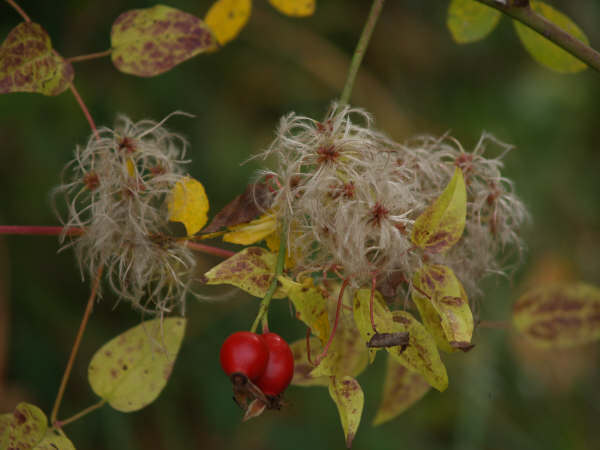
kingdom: Plantae
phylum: Tracheophyta
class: Magnoliopsida
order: Ranunculales
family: Ranunculaceae
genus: Clematis
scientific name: Clematis vitalba
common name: Evergreen clematis
